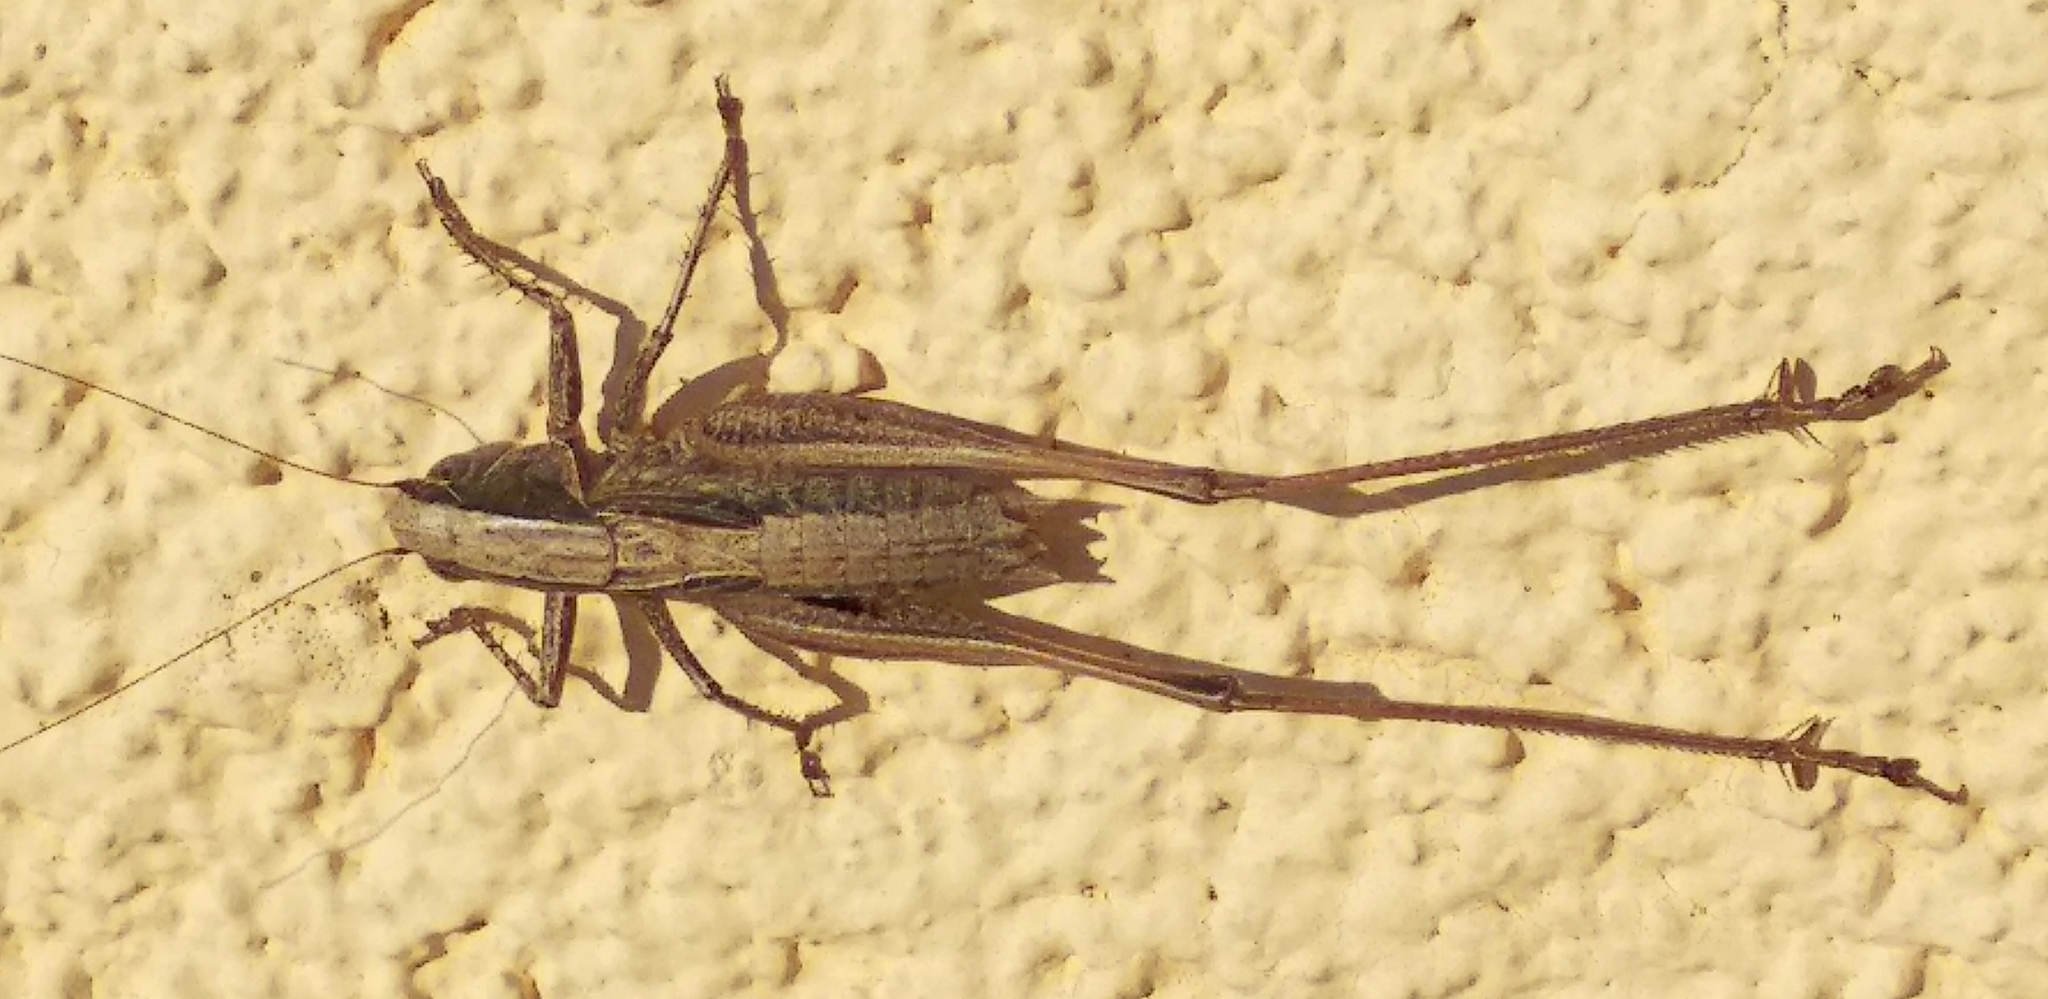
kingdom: Animalia
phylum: Arthropoda
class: Insecta
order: Orthoptera
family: Tettigoniidae
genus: Incertana
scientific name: Incertana incerta
